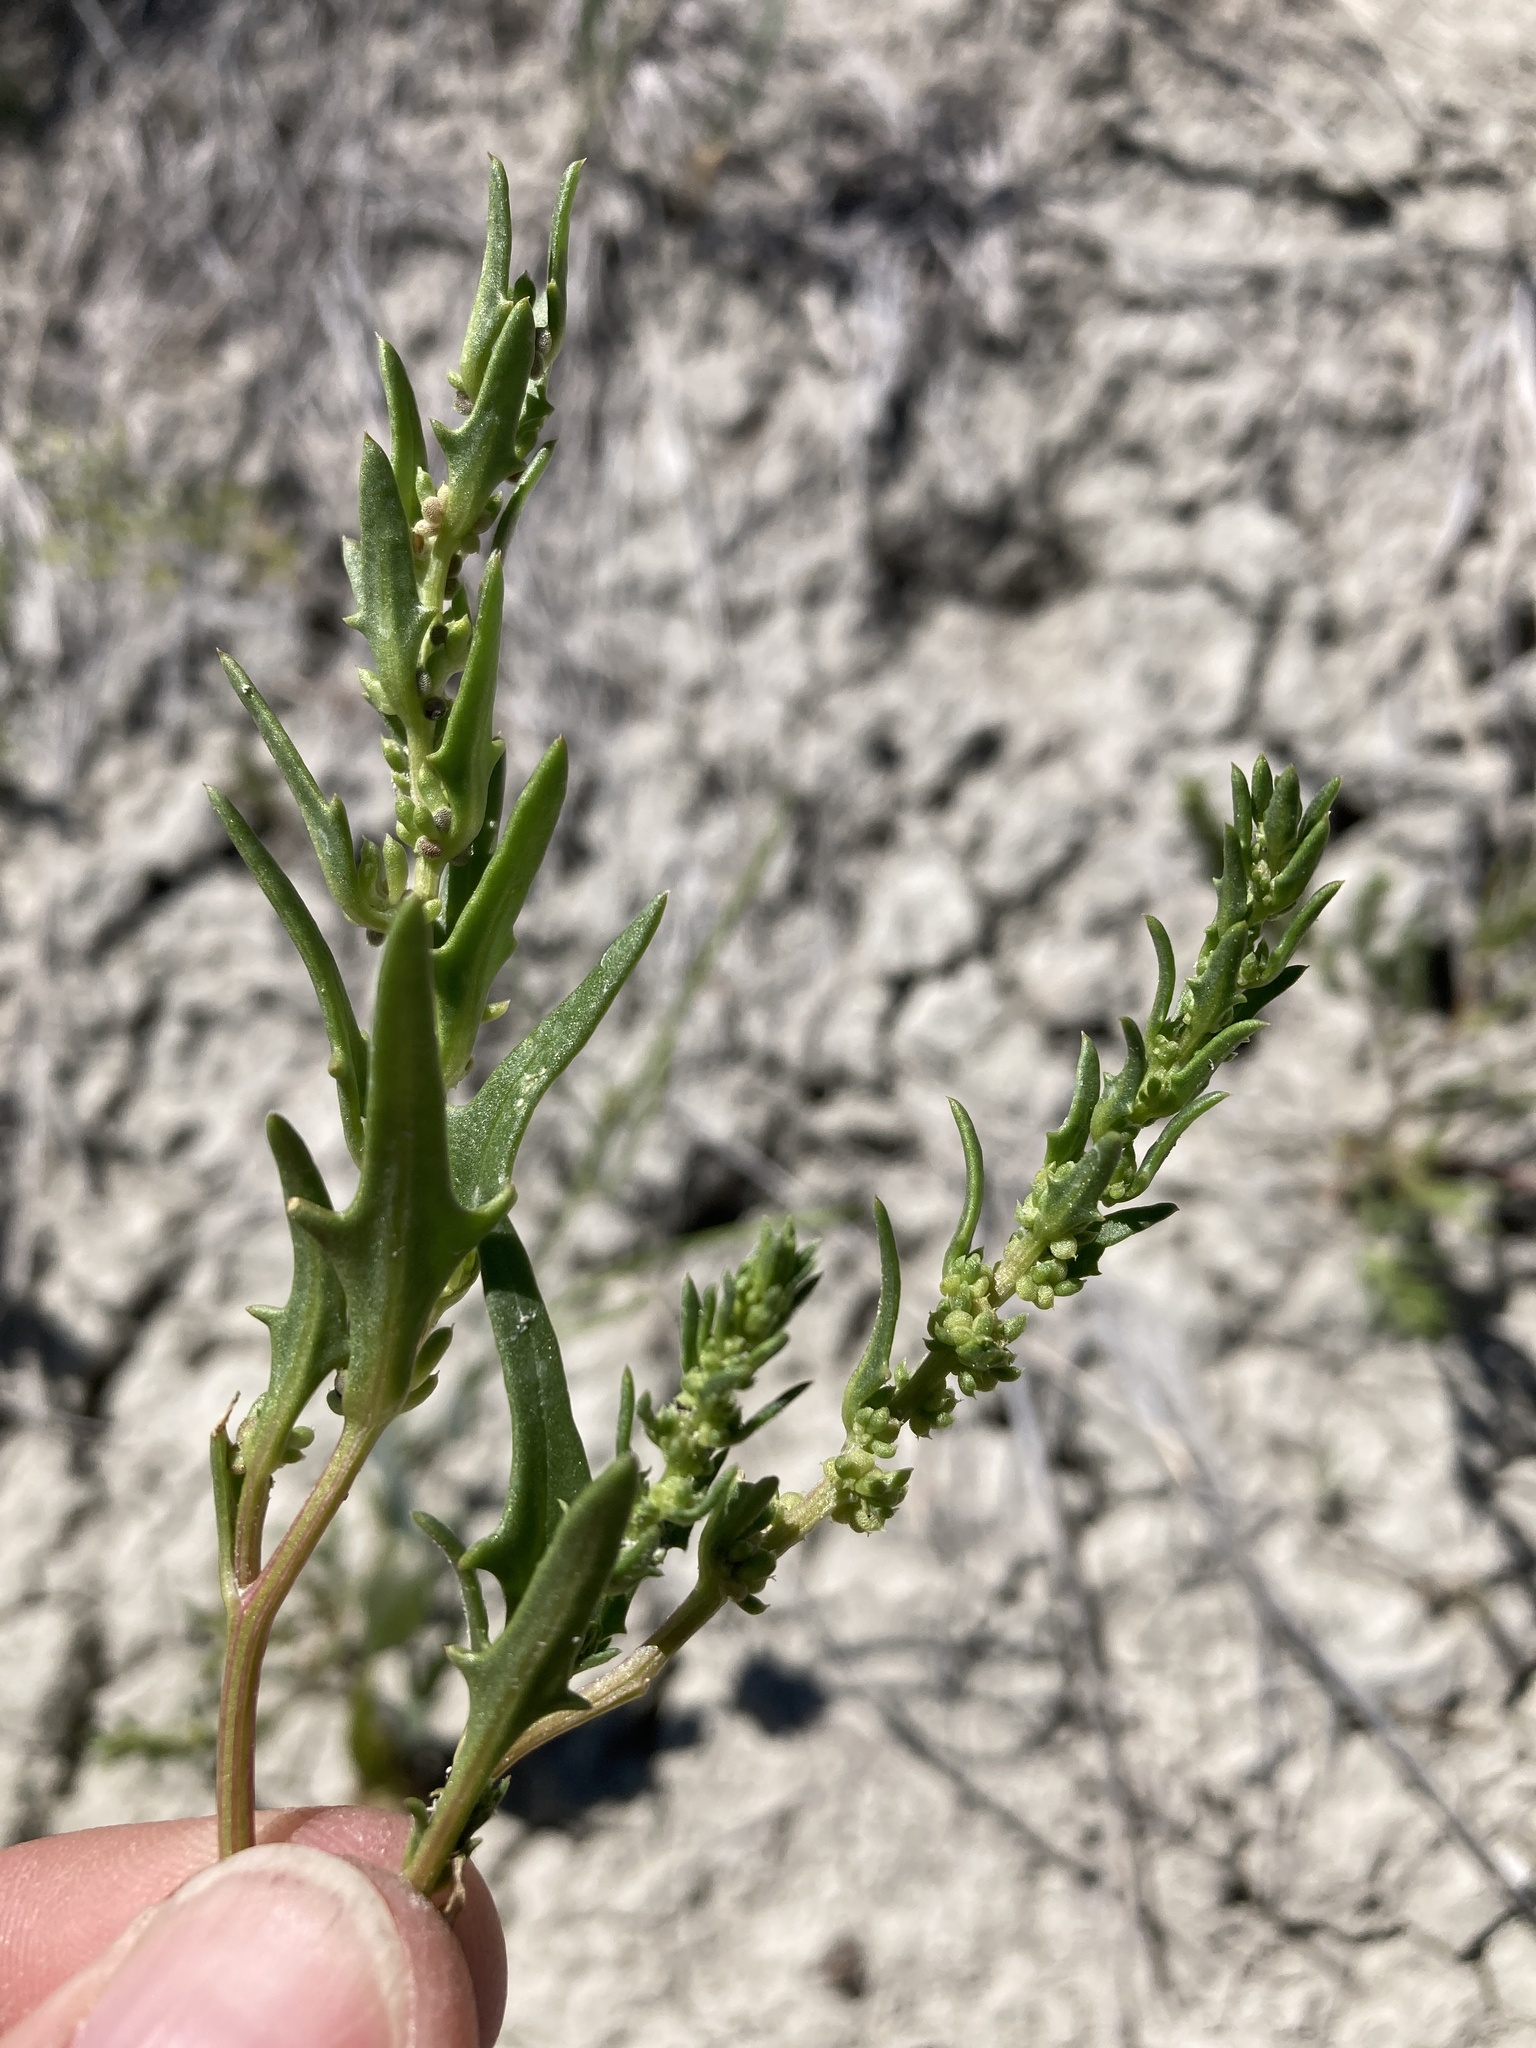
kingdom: Plantae
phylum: Tracheophyta
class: Magnoliopsida
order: Caryophyllales
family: Amaranthaceae
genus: Blitum
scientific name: Blitum nuttallianum
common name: Poverty-weed
